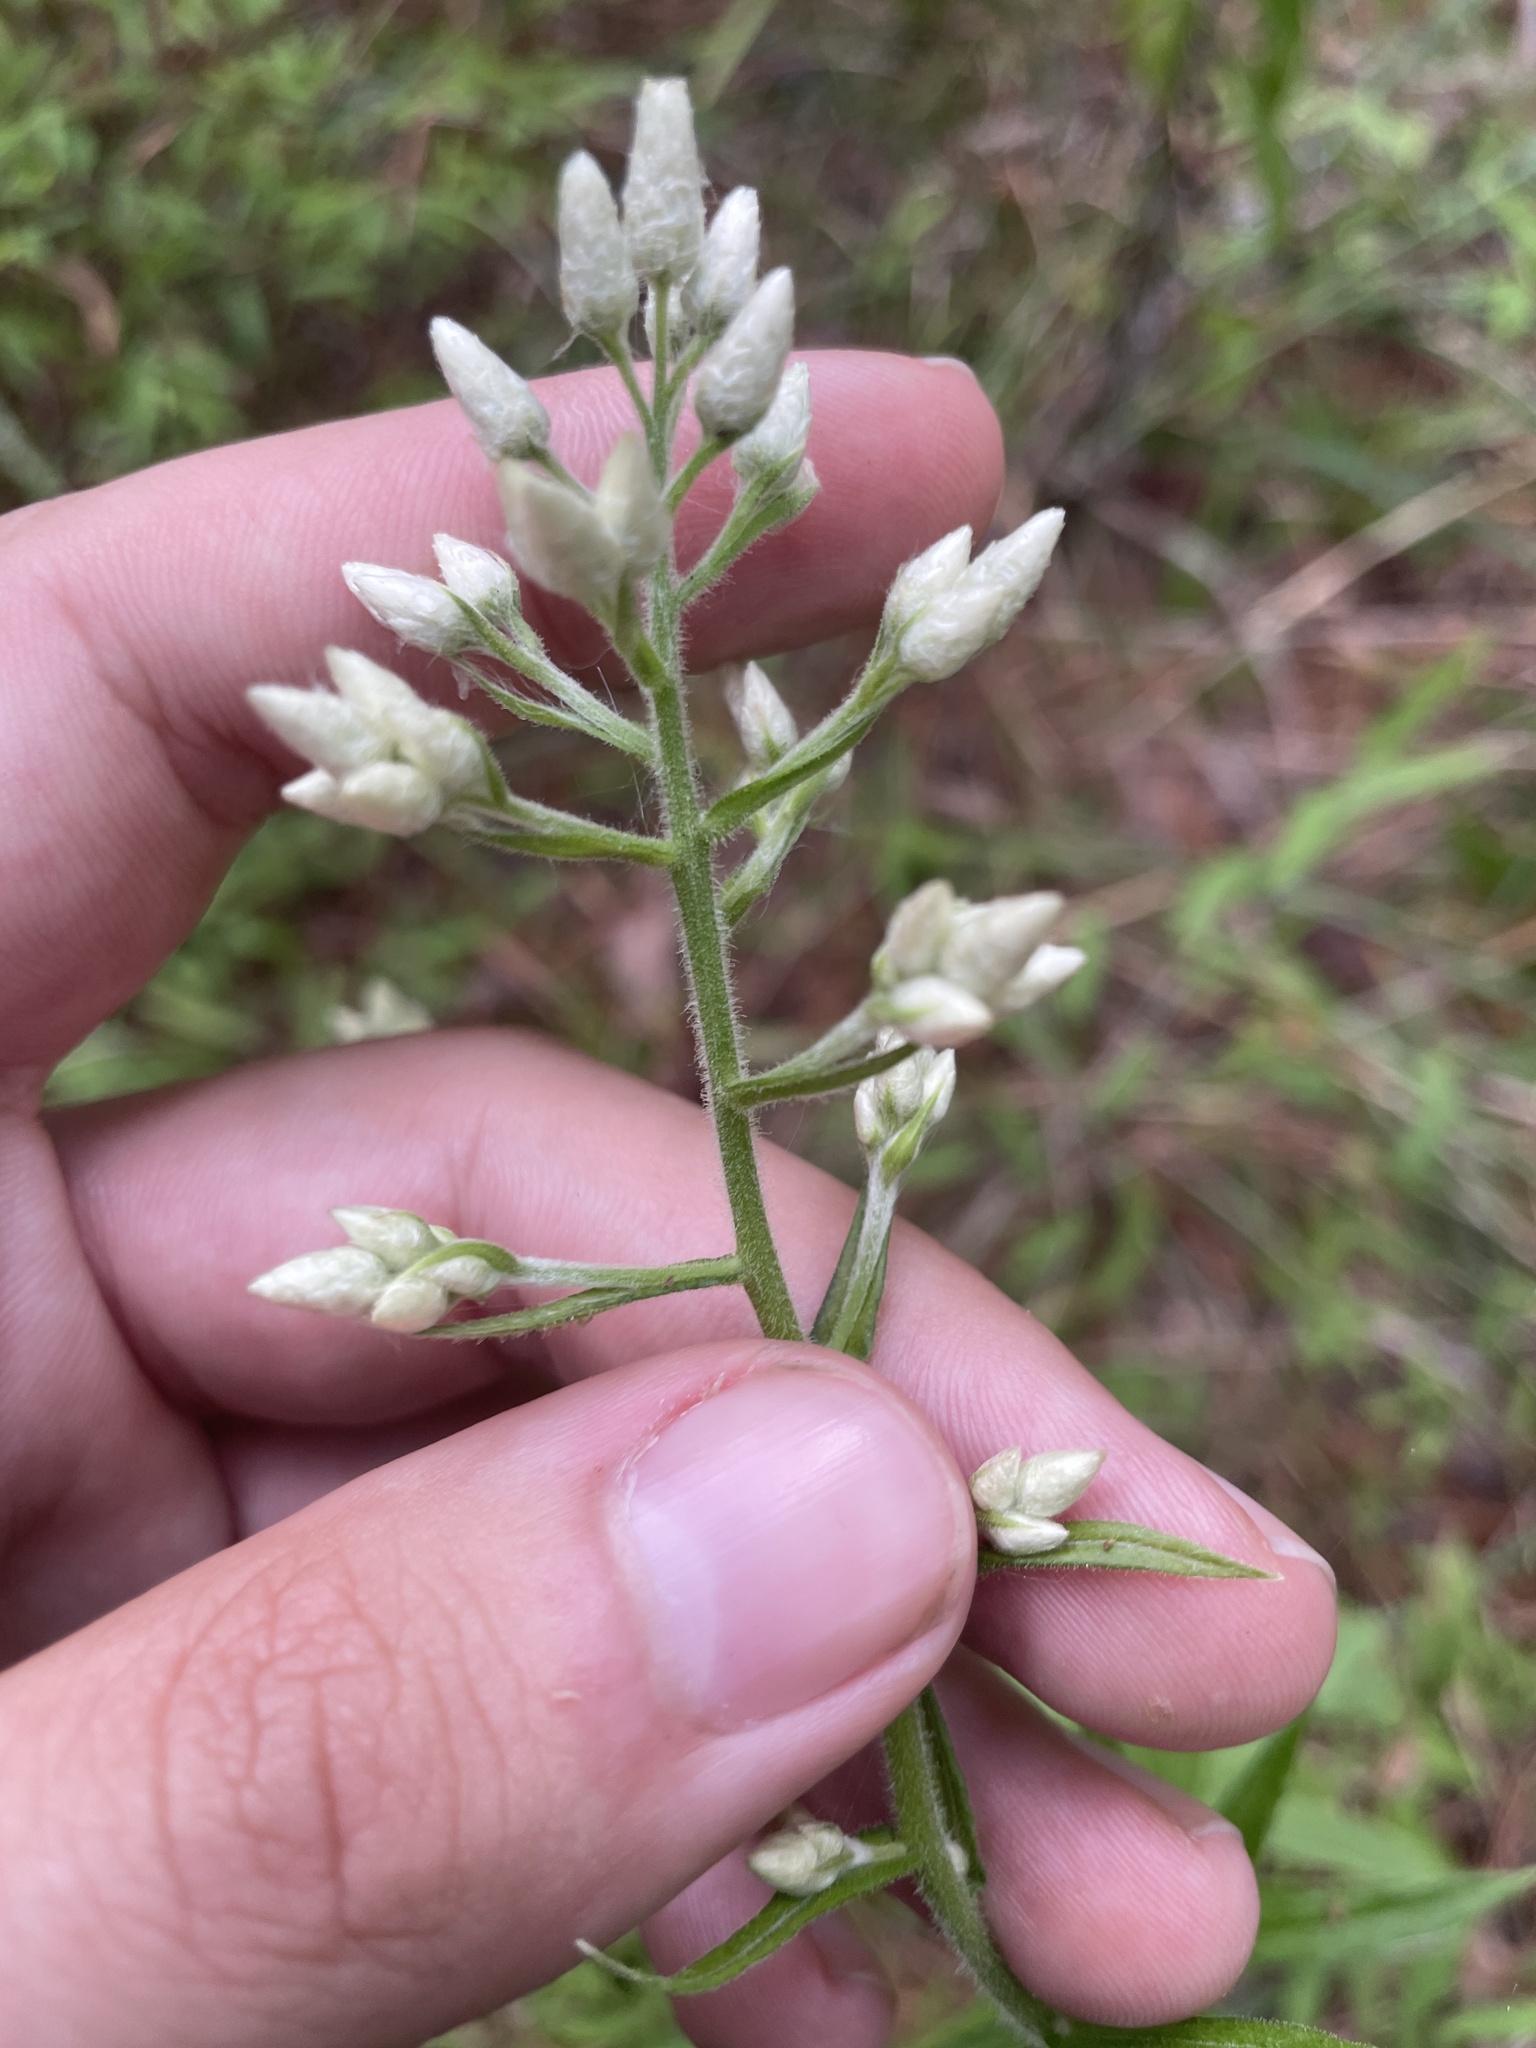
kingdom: Plantae
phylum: Tracheophyta
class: Magnoliopsida
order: Asterales
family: Asteraceae
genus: Pseudognaphalium
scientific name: Pseudognaphalium helleri
